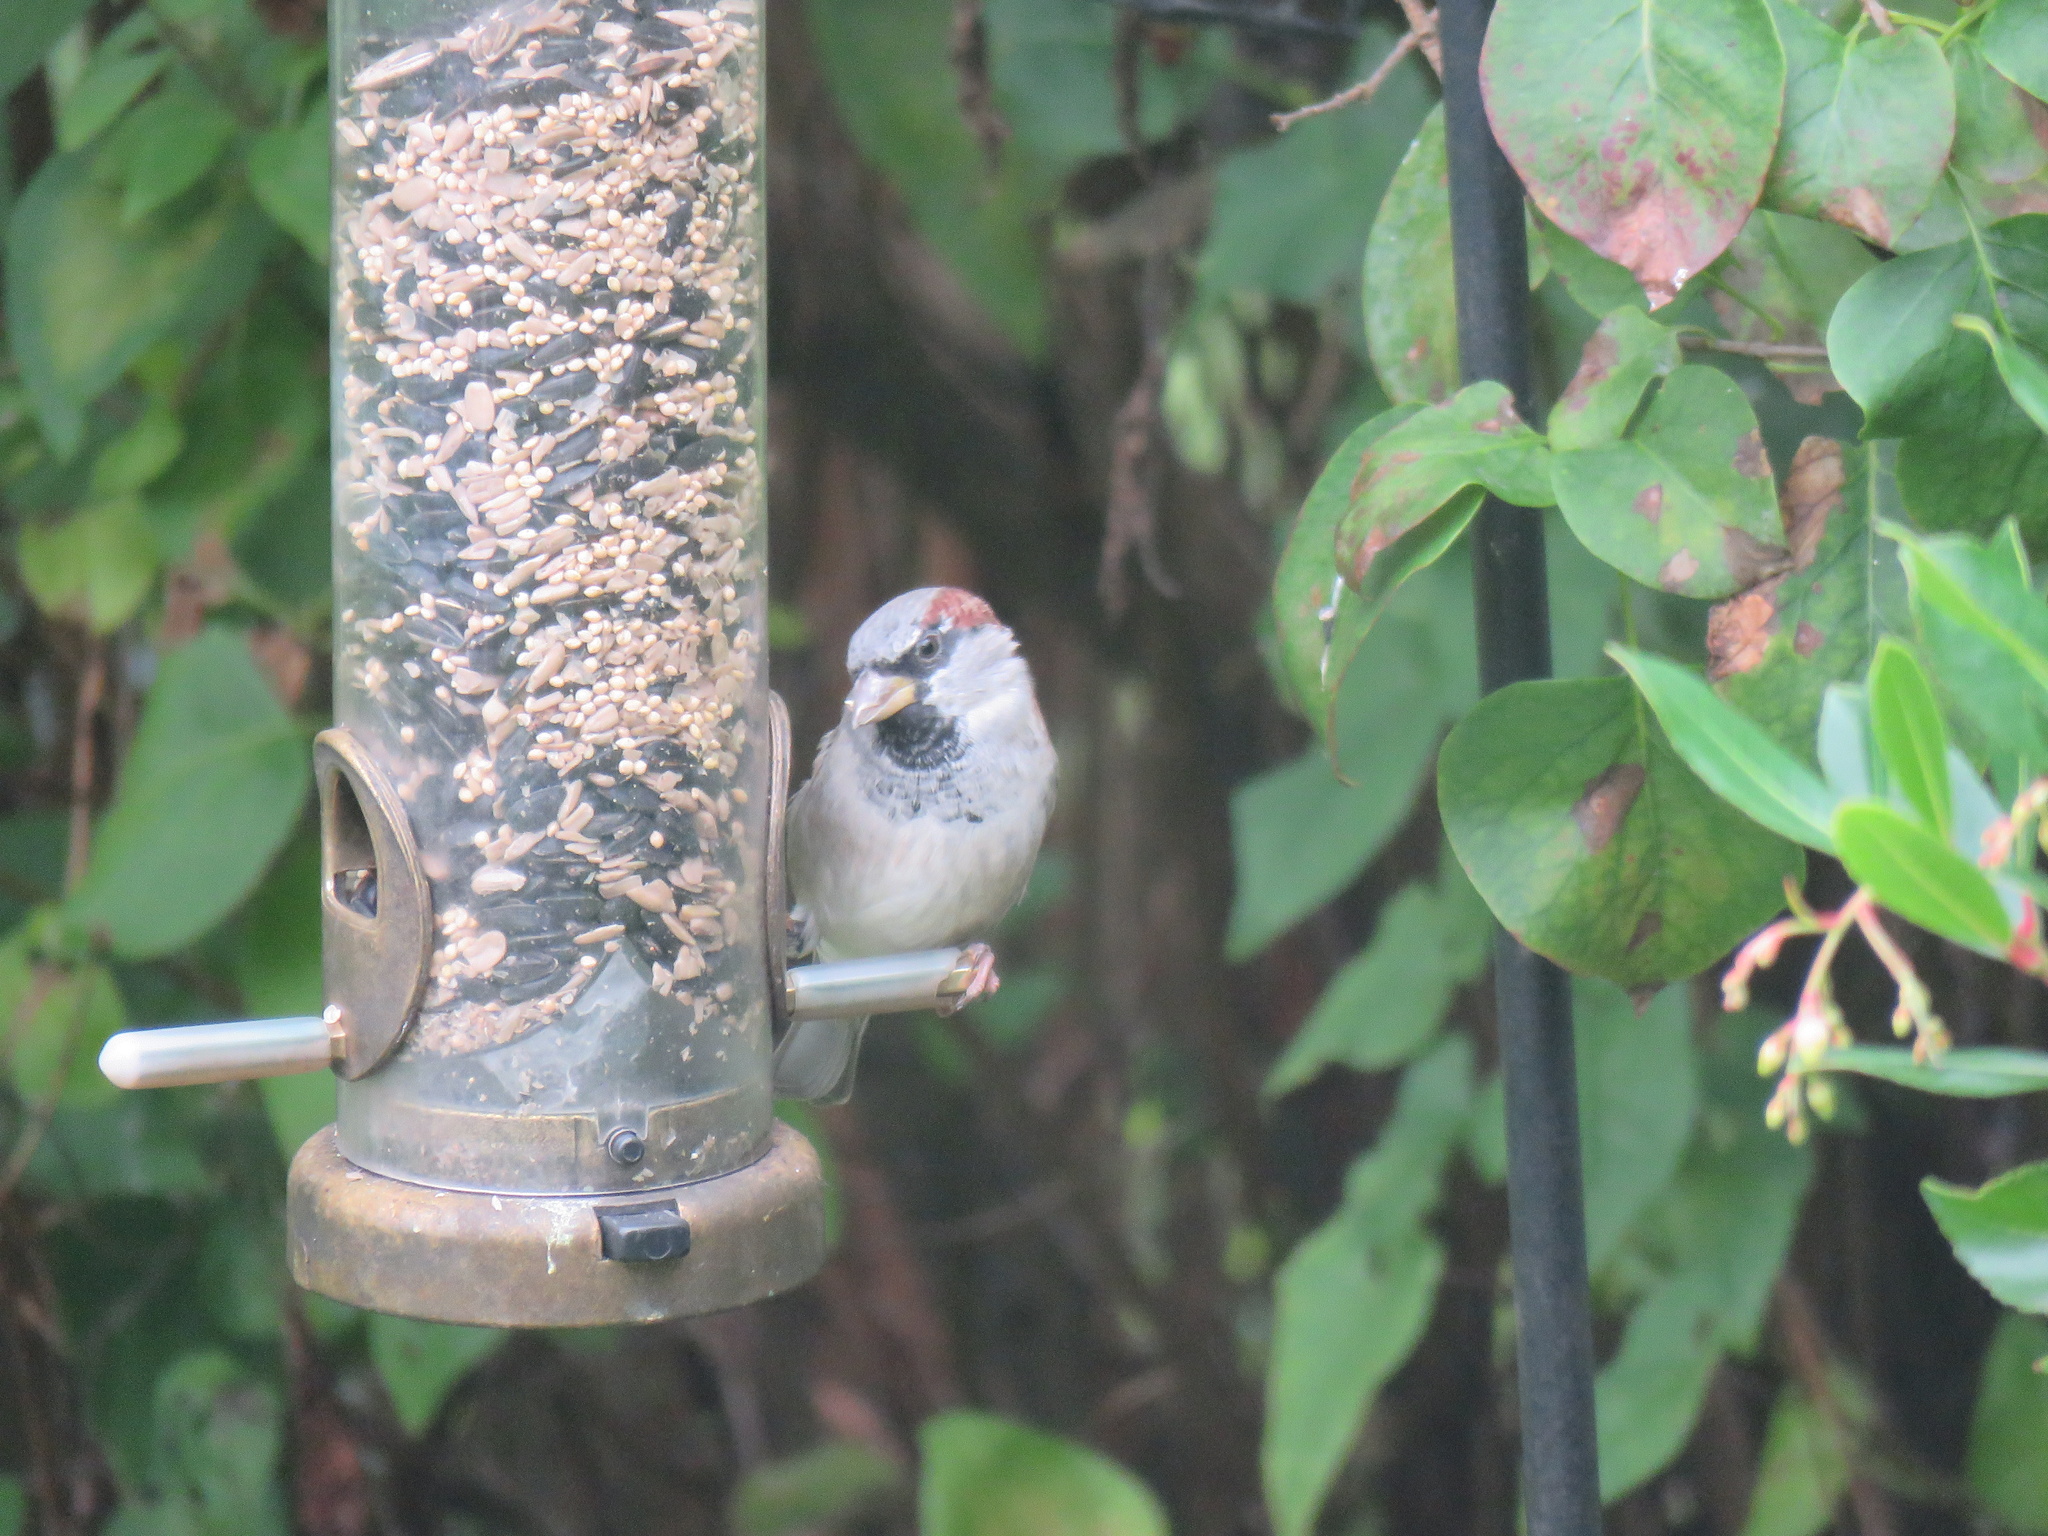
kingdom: Animalia
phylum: Chordata
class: Aves
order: Passeriformes
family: Passeridae
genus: Passer
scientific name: Passer domesticus
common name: House sparrow
